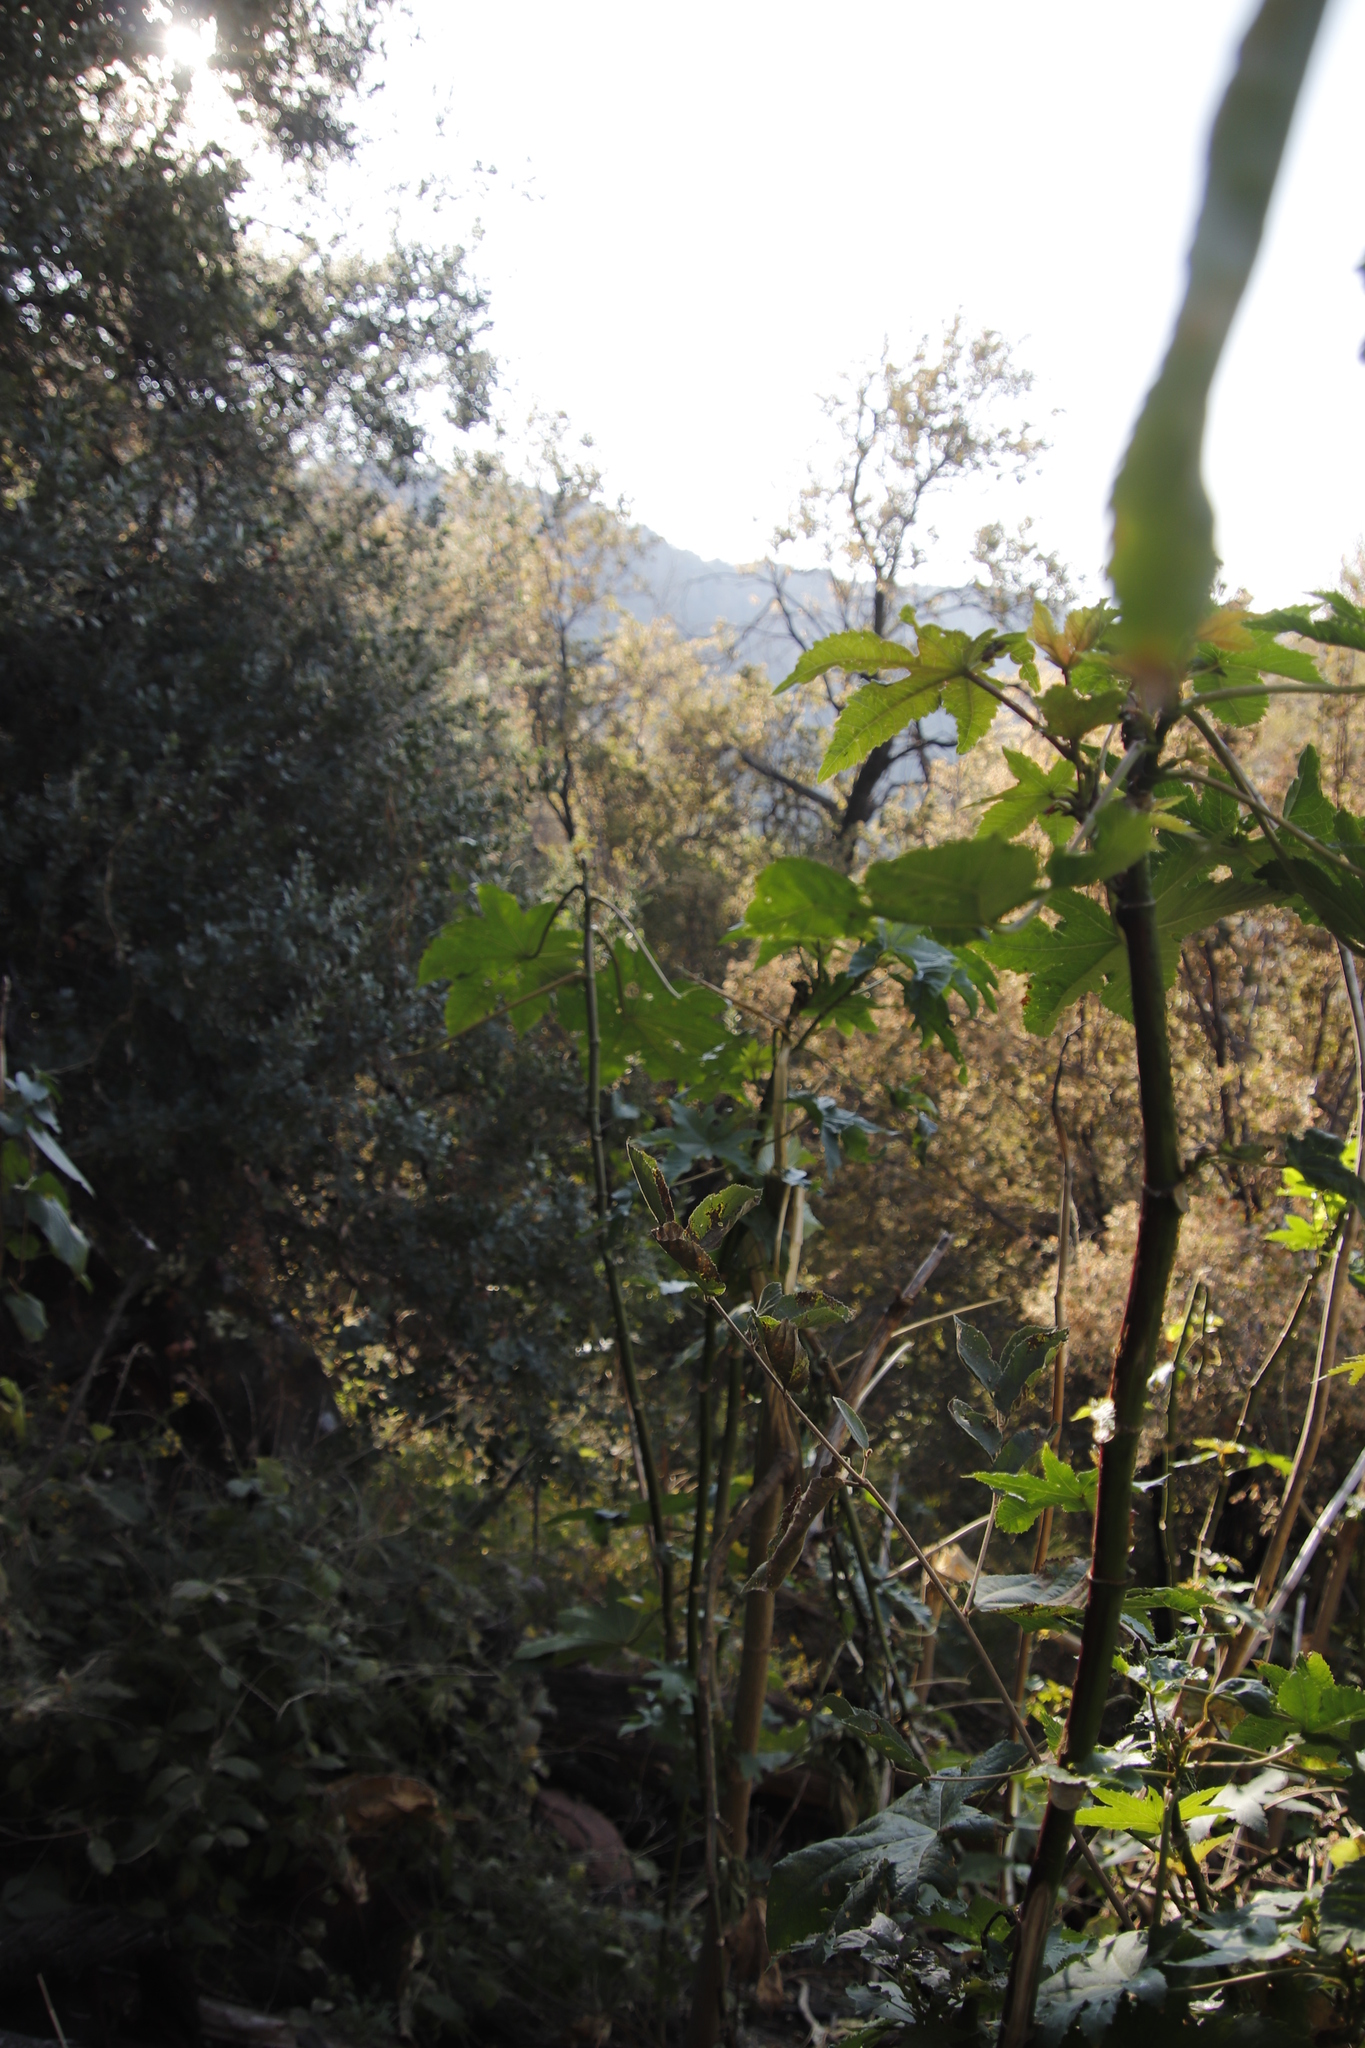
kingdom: Plantae
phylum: Tracheophyta
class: Magnoliopsida
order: Malpighiales
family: Euphorbiaceae
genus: Ricinus
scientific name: Ricinus communis
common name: Castor-oil-plant
